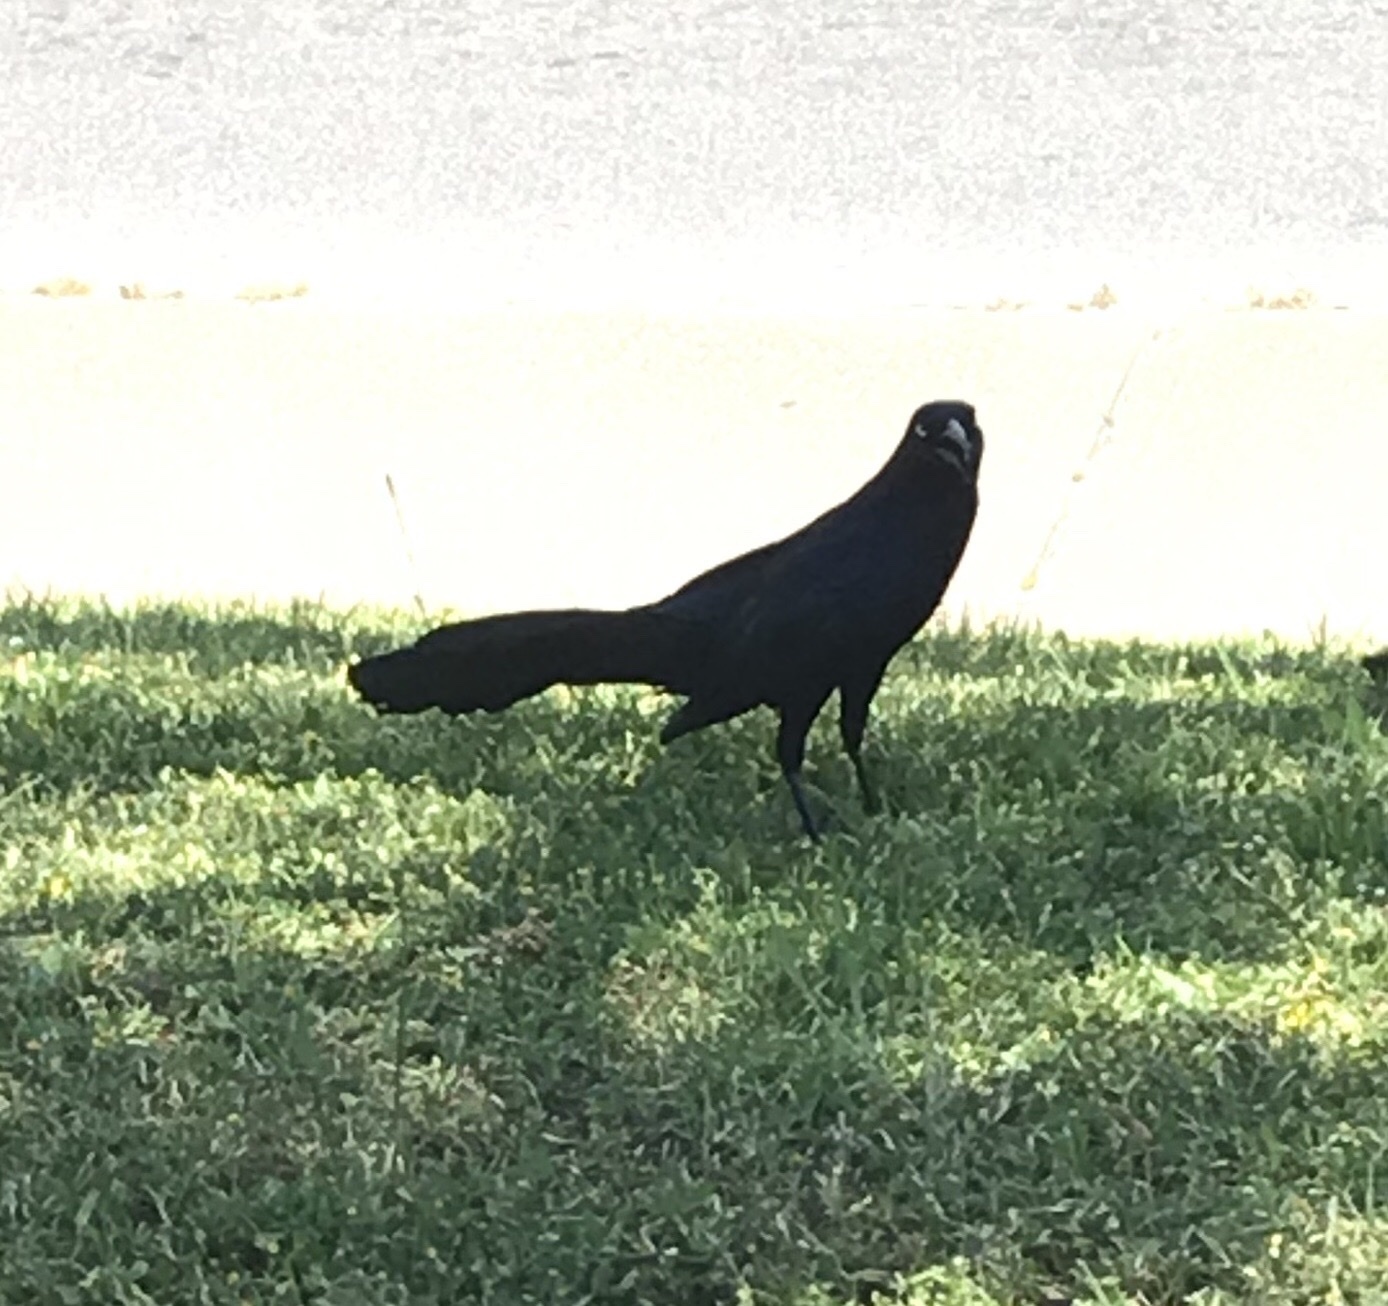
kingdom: Animalia
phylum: Chordata
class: Aves
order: Passeriformes
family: Icteridae
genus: Quiscalus
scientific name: Quiscalus mexicanus
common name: Great-tailed grackle
